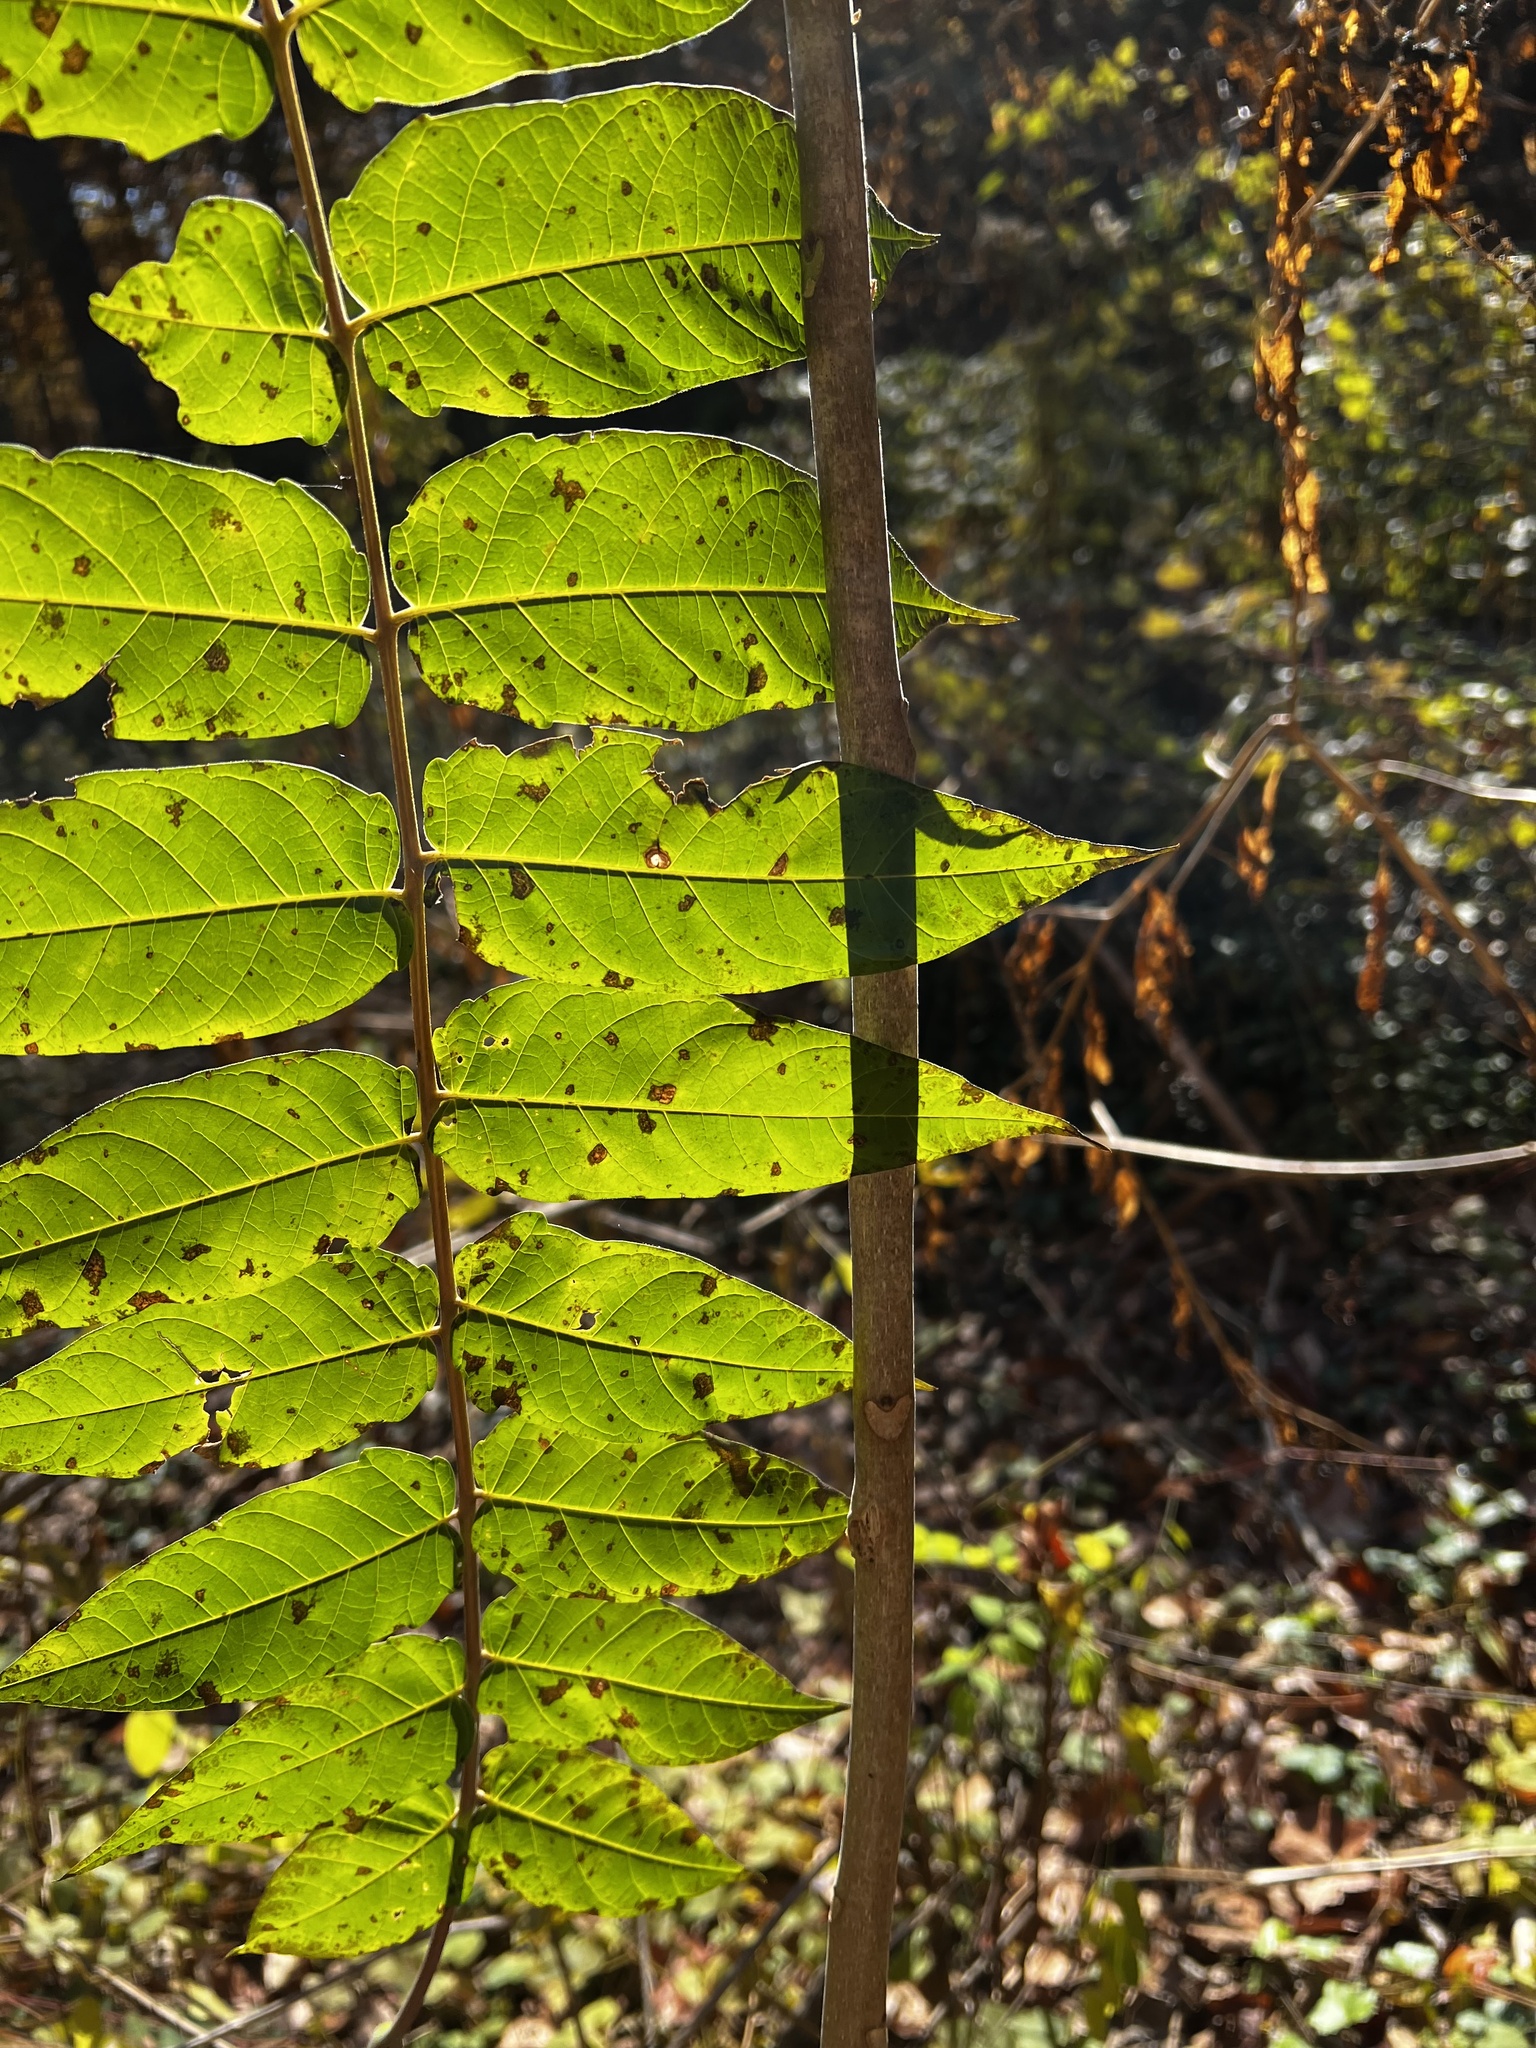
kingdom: Plantae
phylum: Tracheophyta
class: Magnoliopsida
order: Sapindales
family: Simaroubaceae
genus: Ailanthus
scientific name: Ailanthus altissima
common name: Tree-of-heaven
